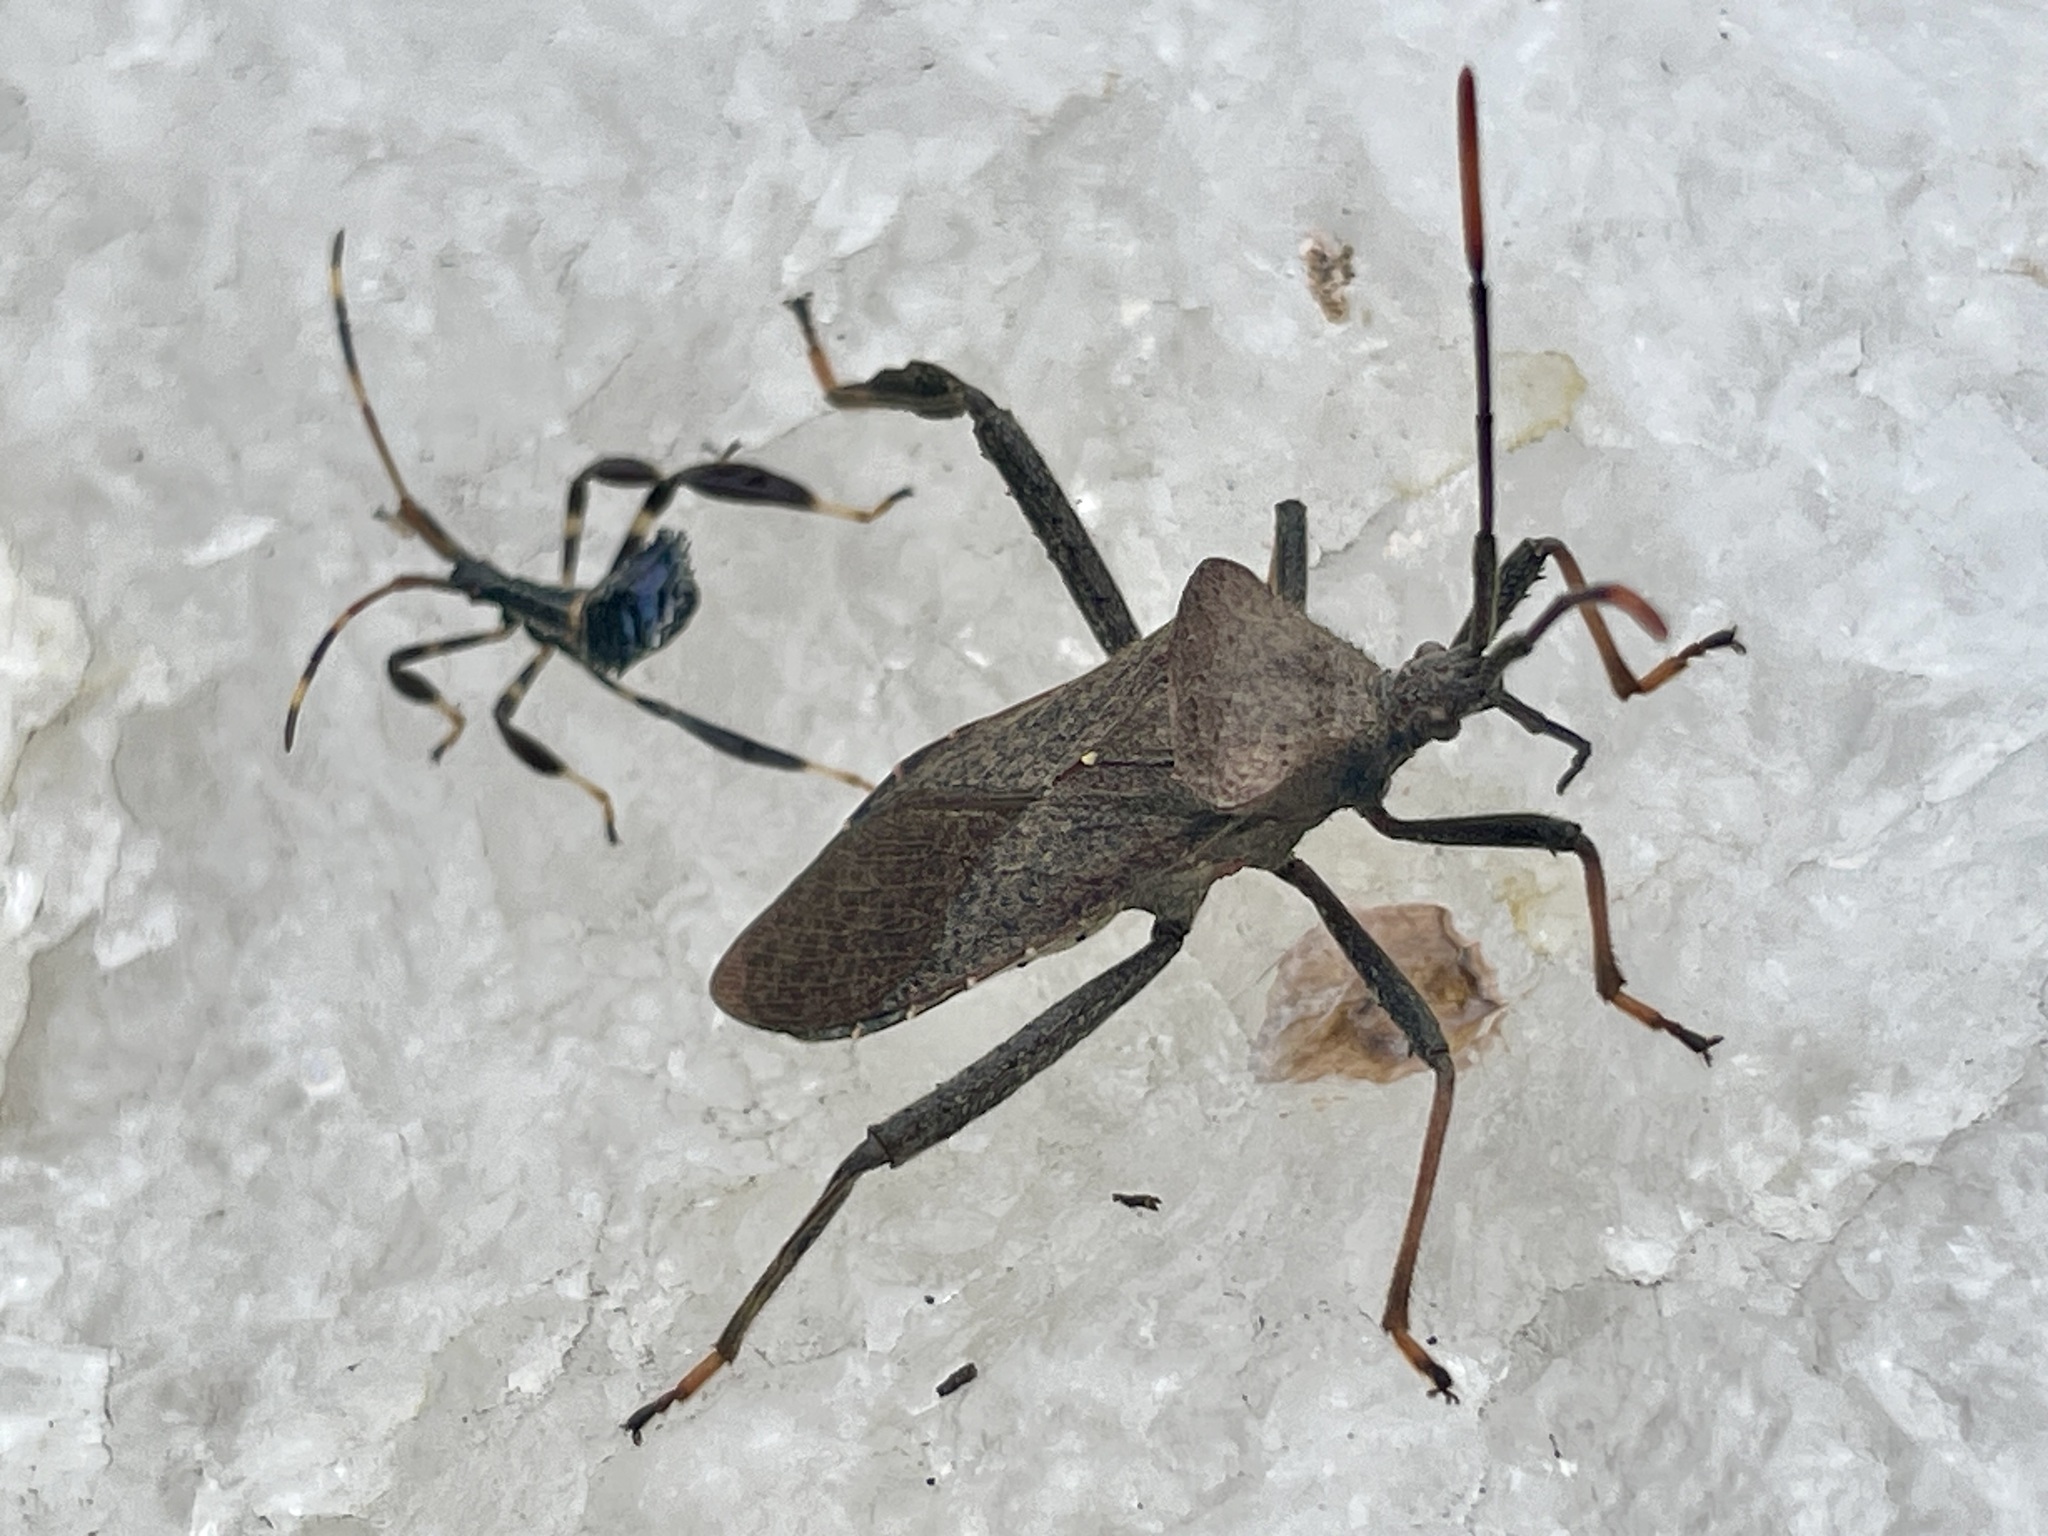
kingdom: Animalia
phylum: Arthropoda
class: Insecta
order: Hemiptera
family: Coreidae
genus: Acanthocephala
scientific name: Acanthocephala terminalis
